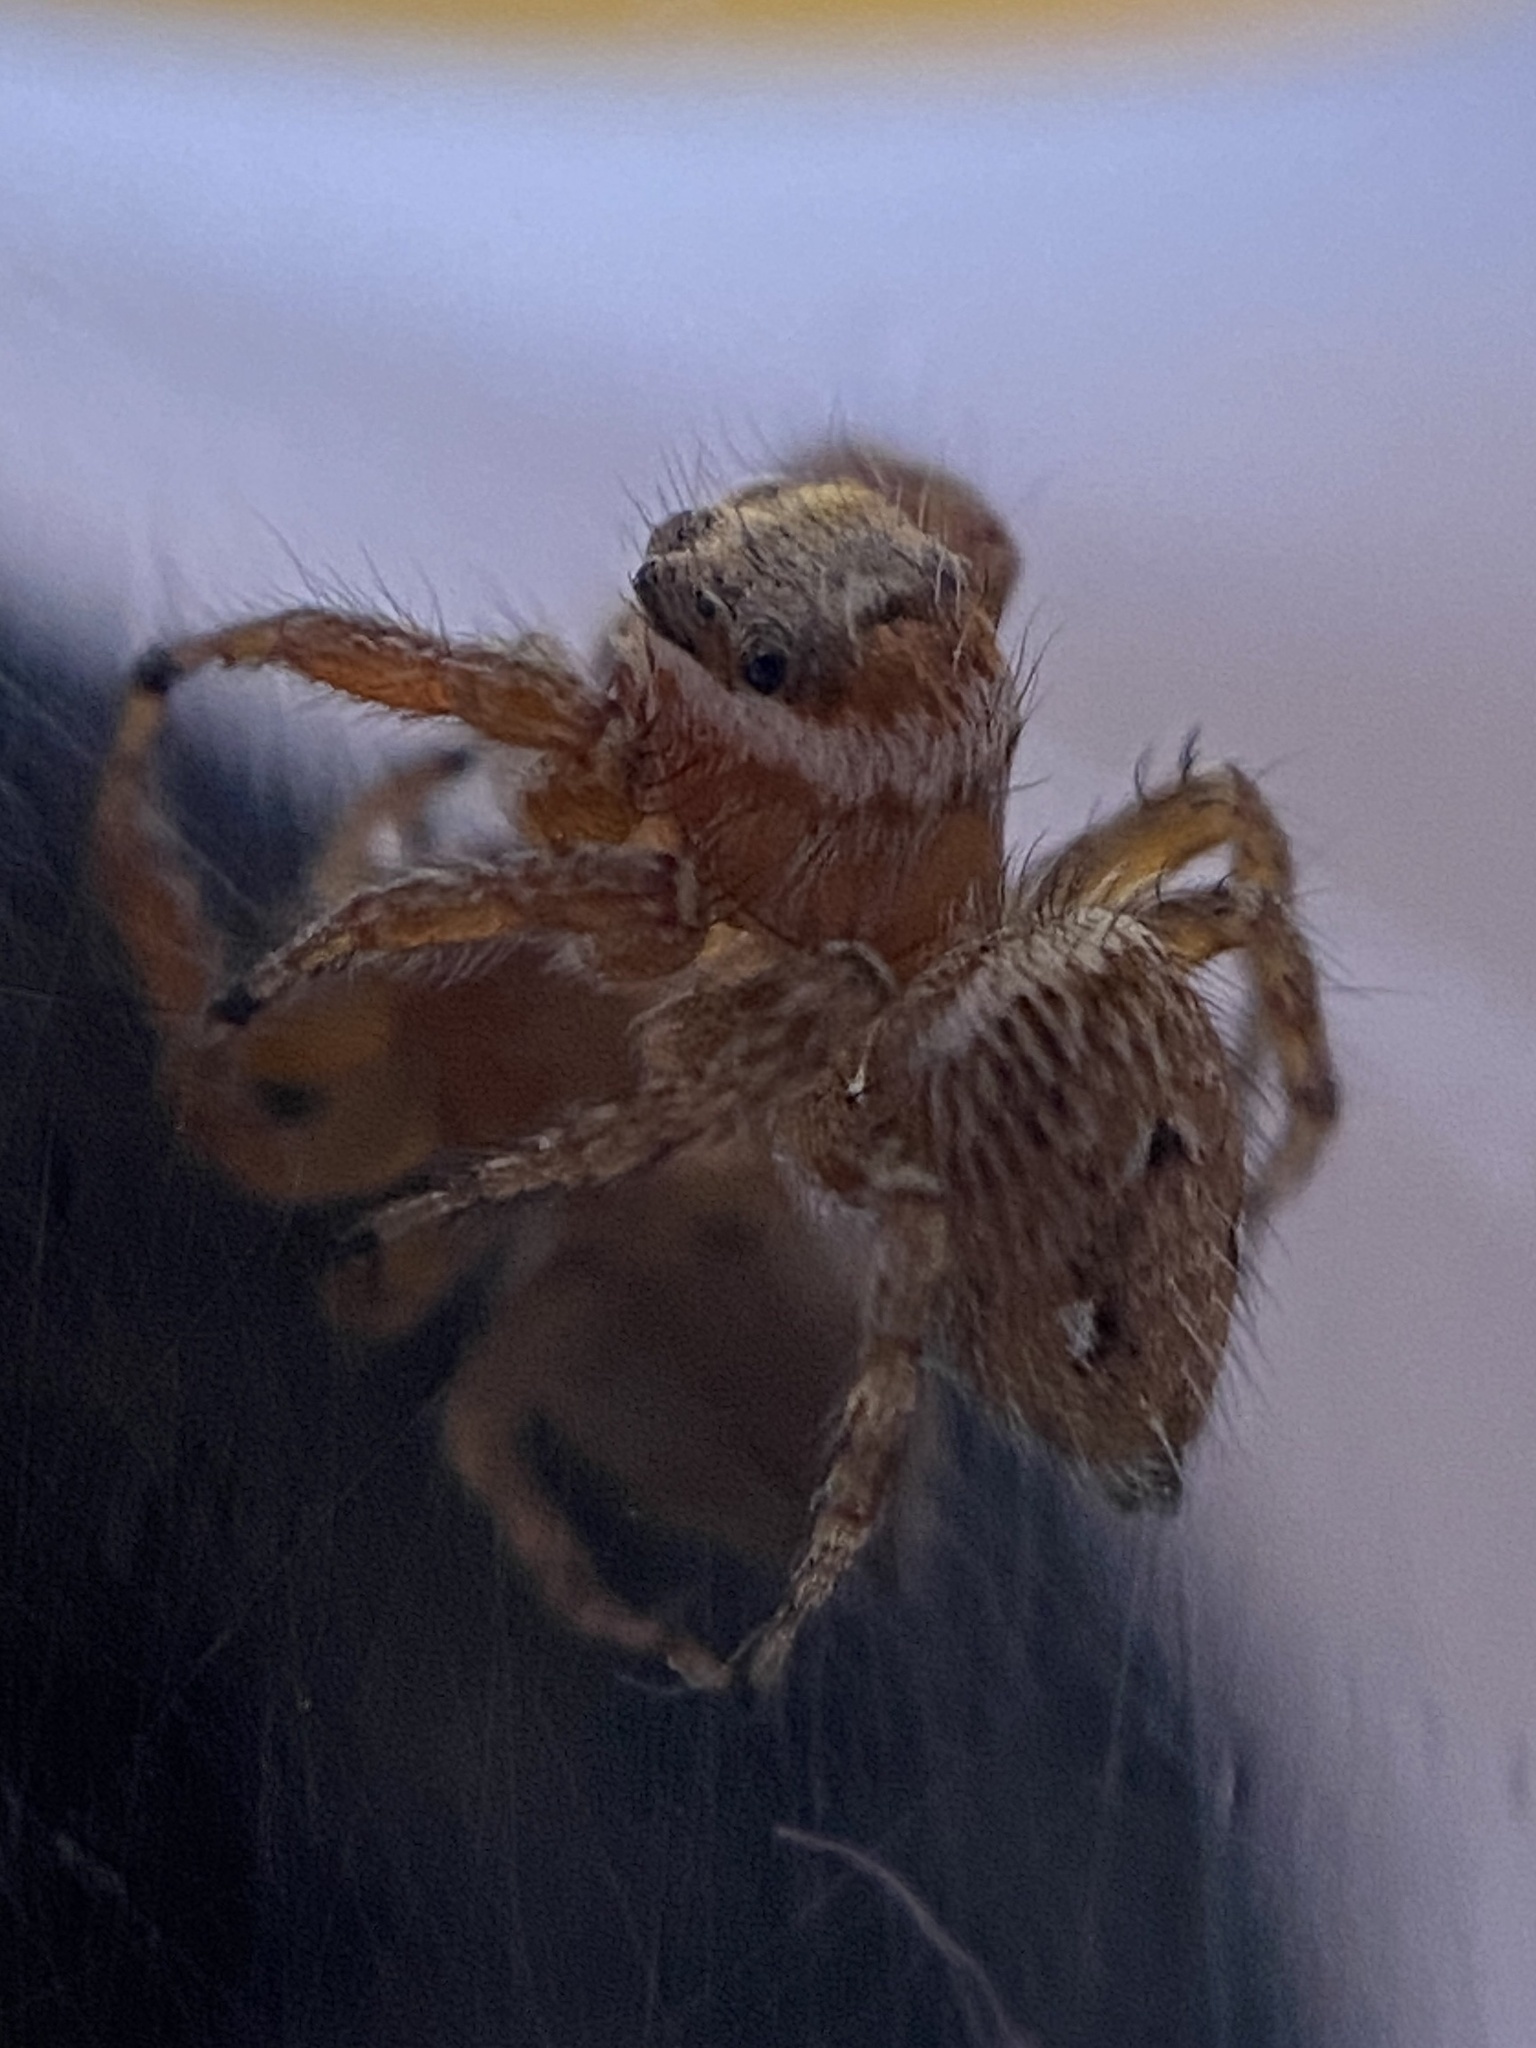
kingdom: Animalia
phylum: Arthropoda
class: Arachnida
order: Araneae
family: Salticidae
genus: Evarcha
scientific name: Evarcha jucunda
